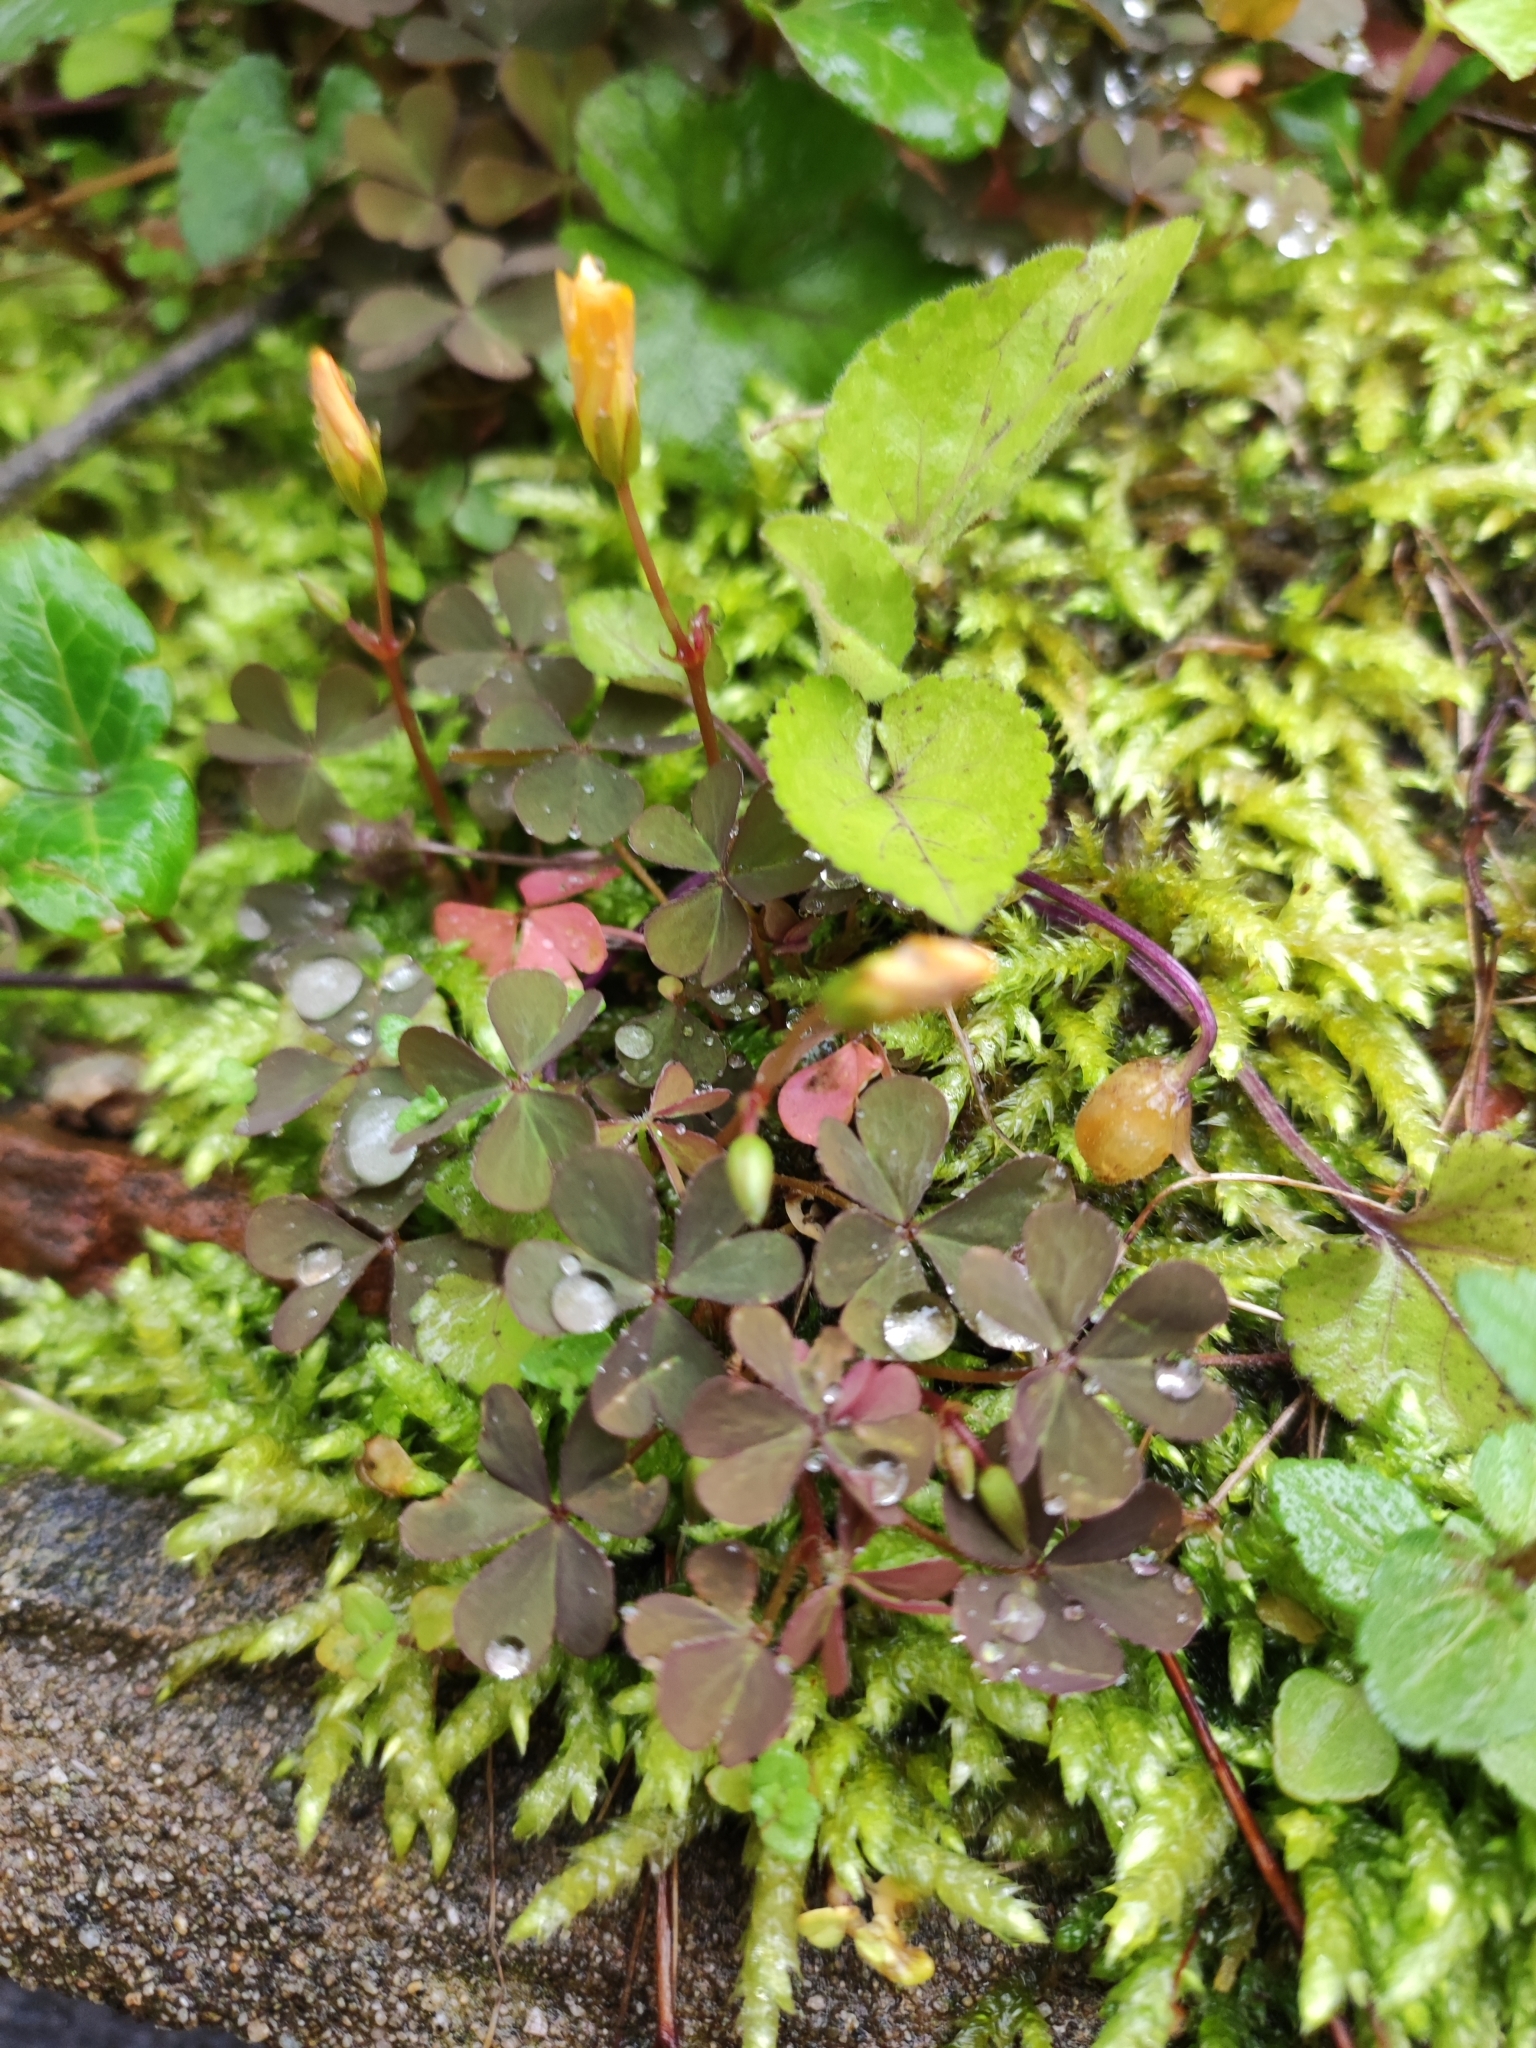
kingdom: Plantae
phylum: Tracheophyta
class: Magnoliopsida
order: Oxalidales
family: Oxalidaceae
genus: Oxalis
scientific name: Oxalis corniculata
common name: Procumbent yellow-sorrel
